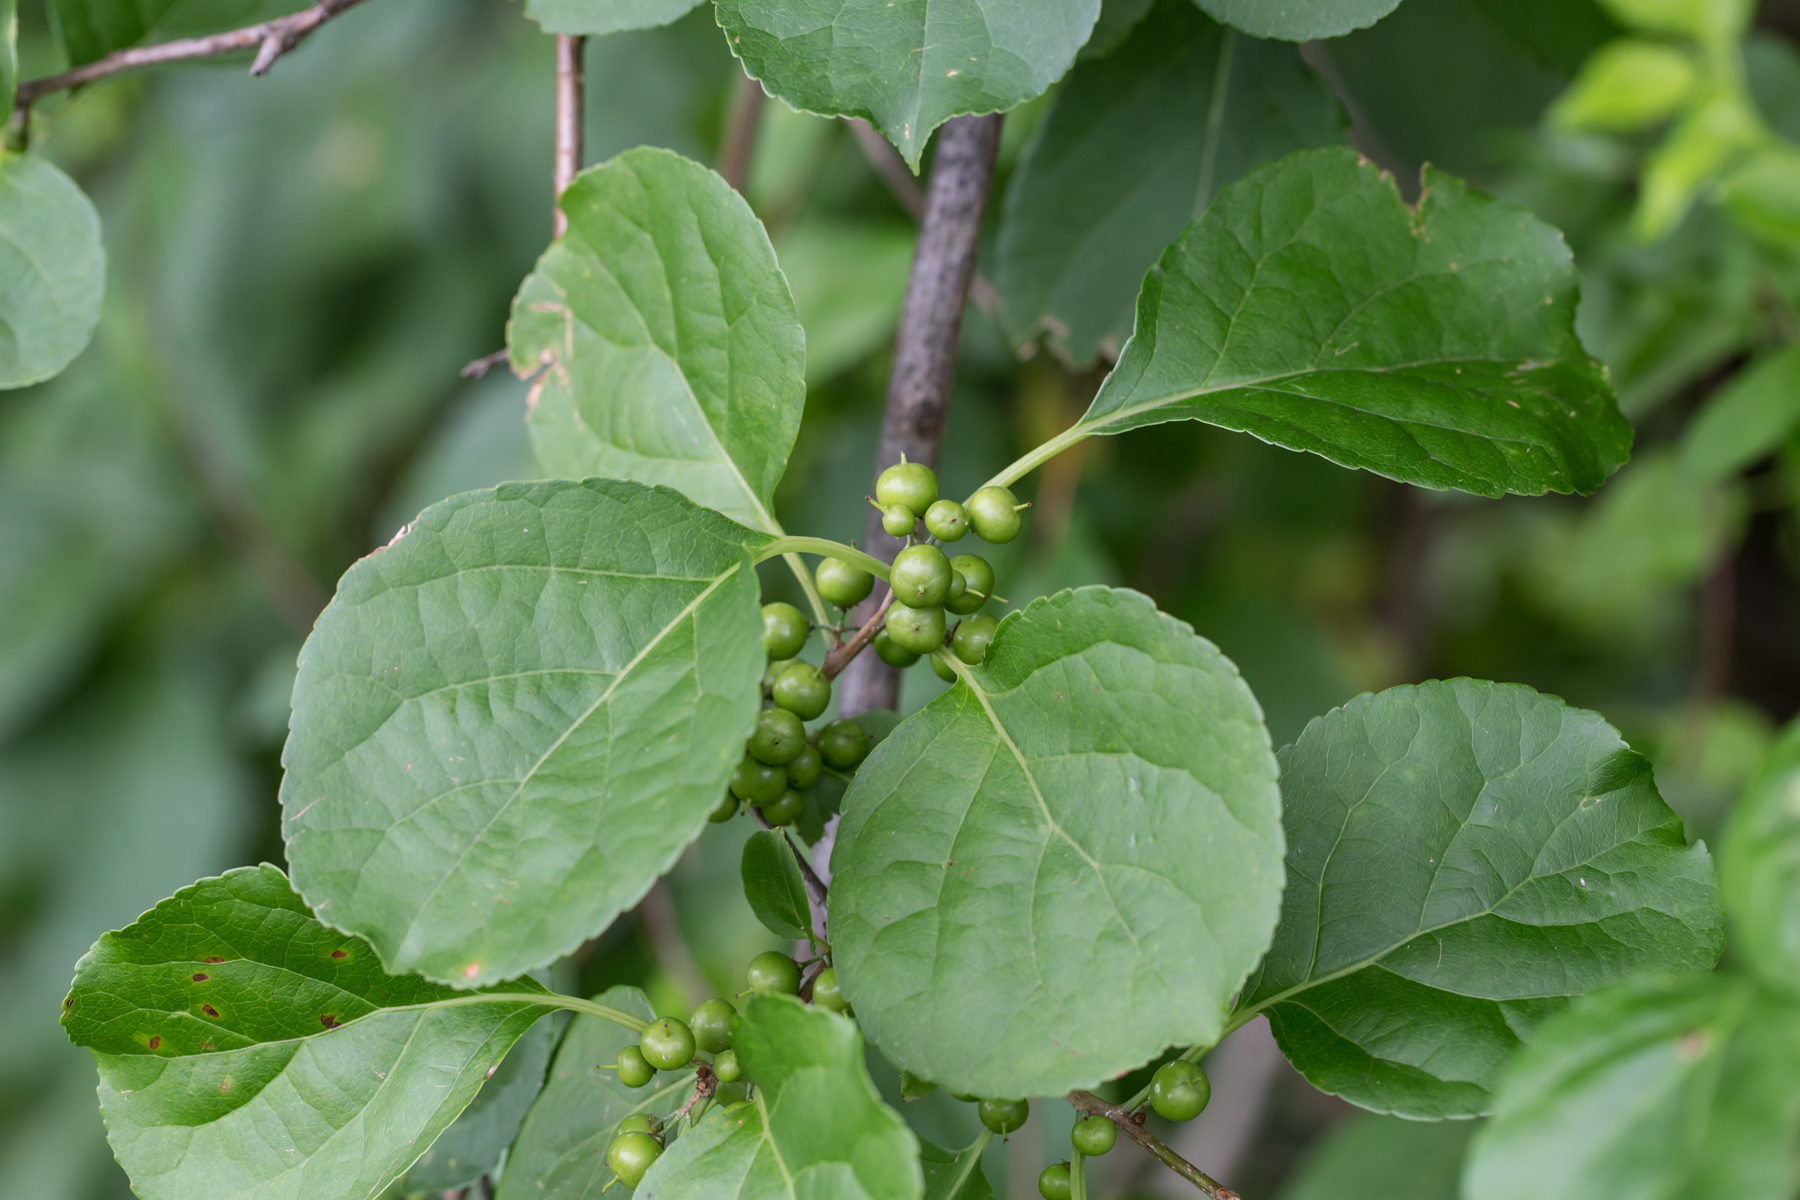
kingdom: Plantae
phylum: Tracheophyta
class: Magnoliopsida
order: Celastrales
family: Celastraceae
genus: Celastrus
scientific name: Celastrus orbiculatus
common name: Oriental bittersweet
